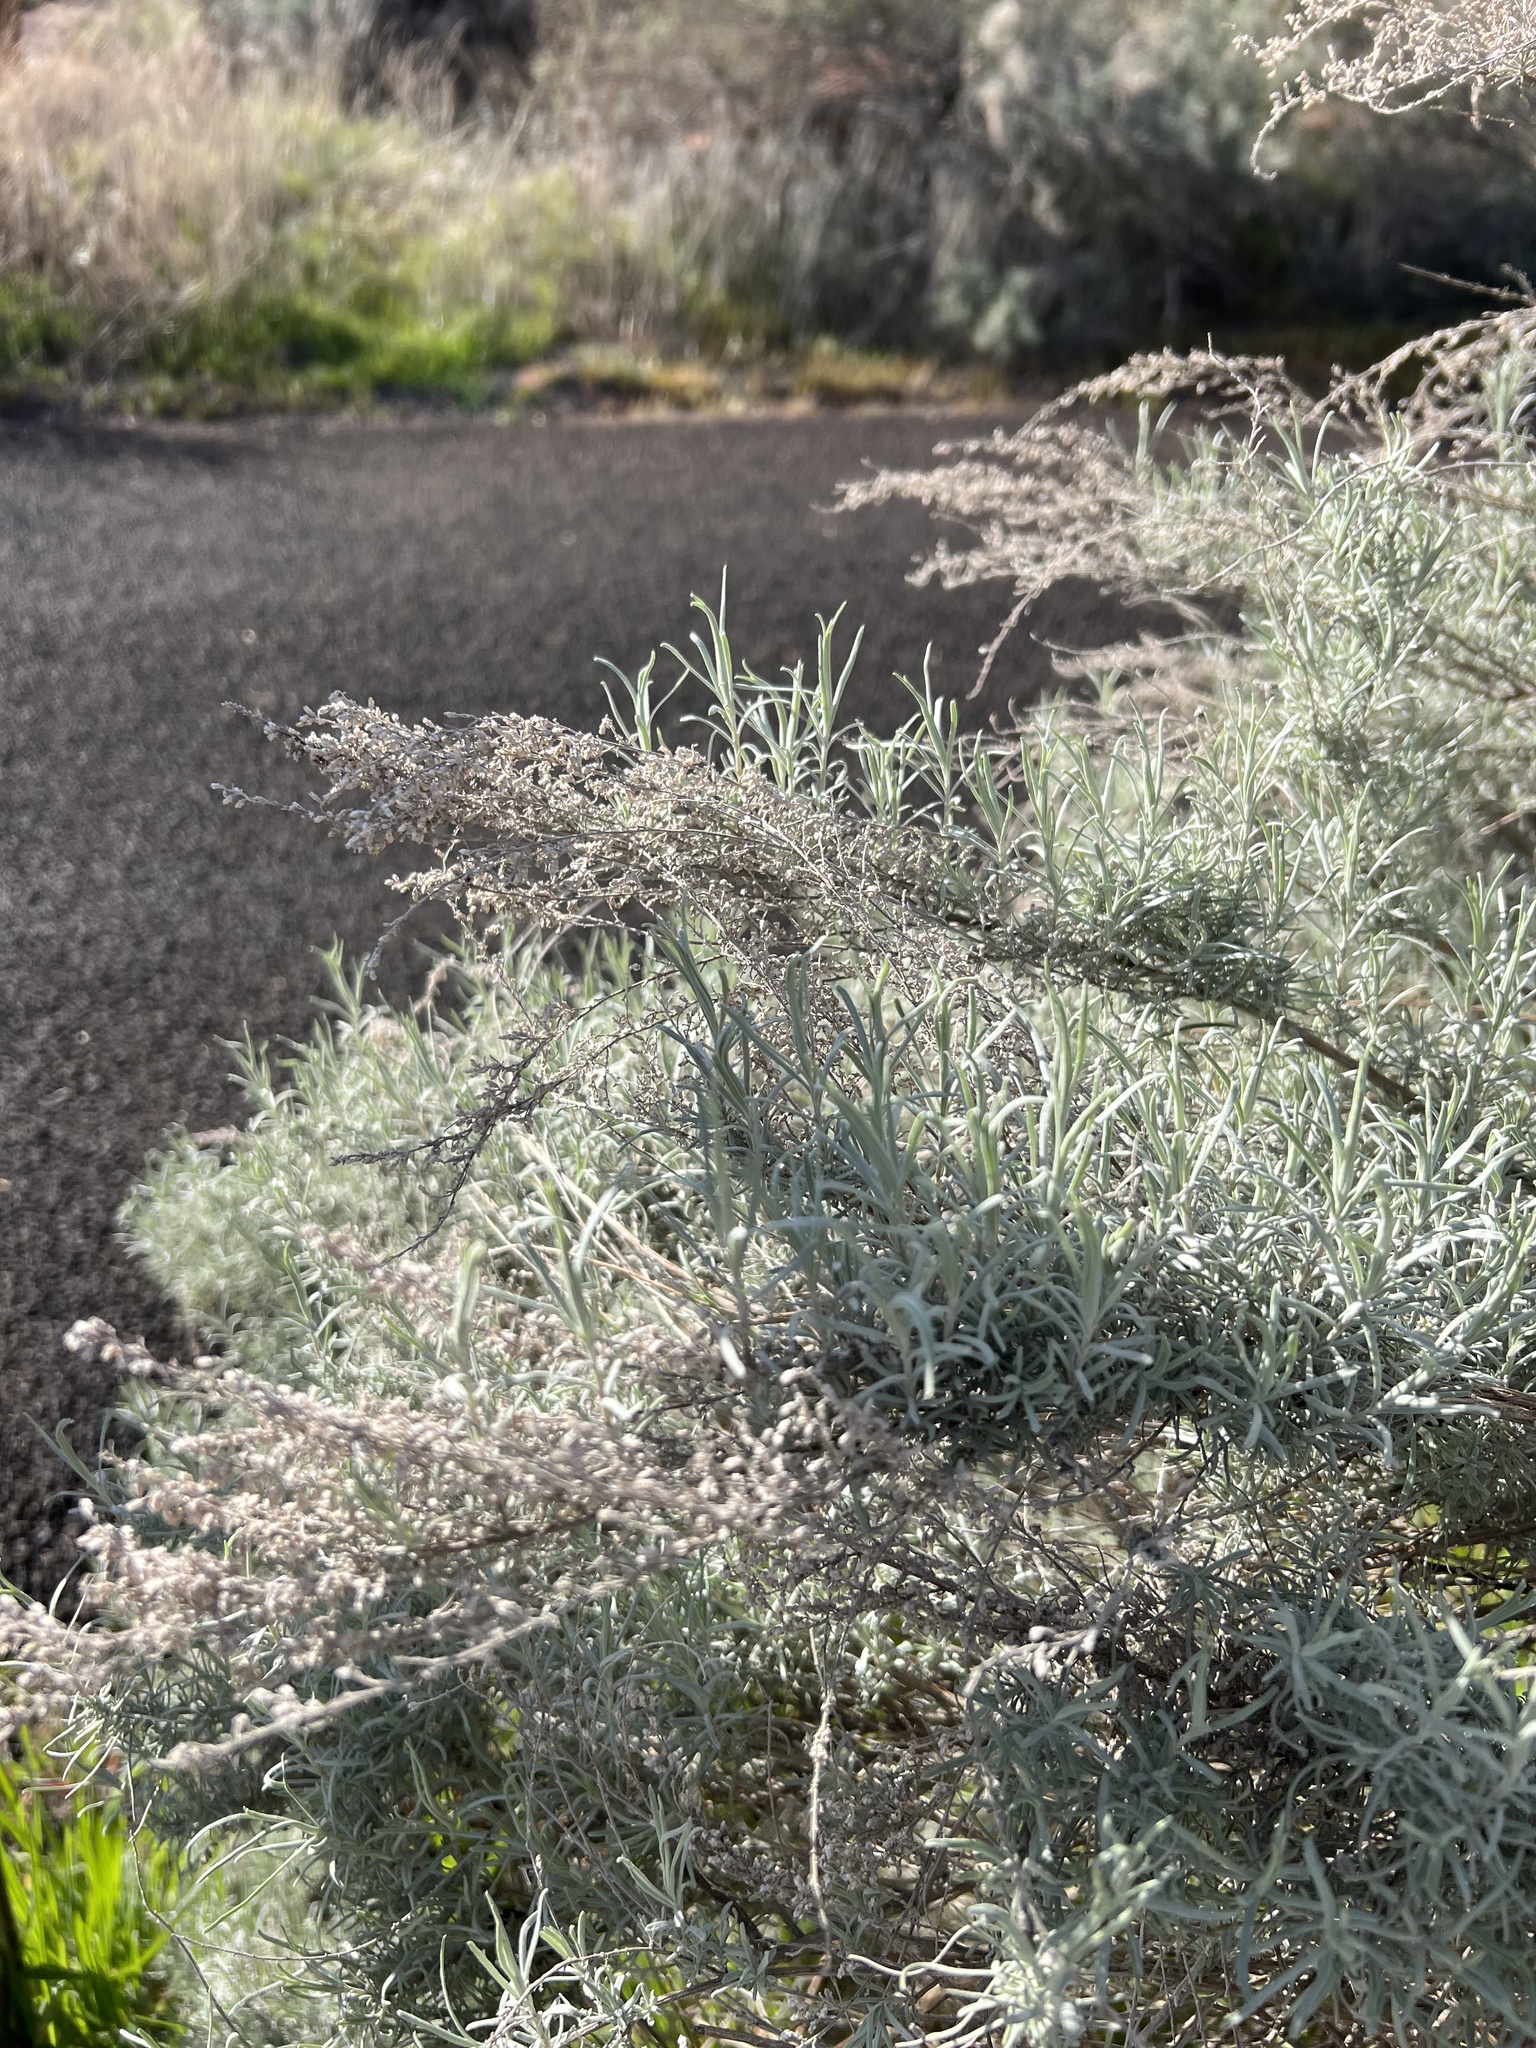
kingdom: Plantae
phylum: Tracheophyta
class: Magnoliopsida
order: Asterales
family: Asteraceae
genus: Artemisia
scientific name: Artemisia filifolia
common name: Sand-sage
